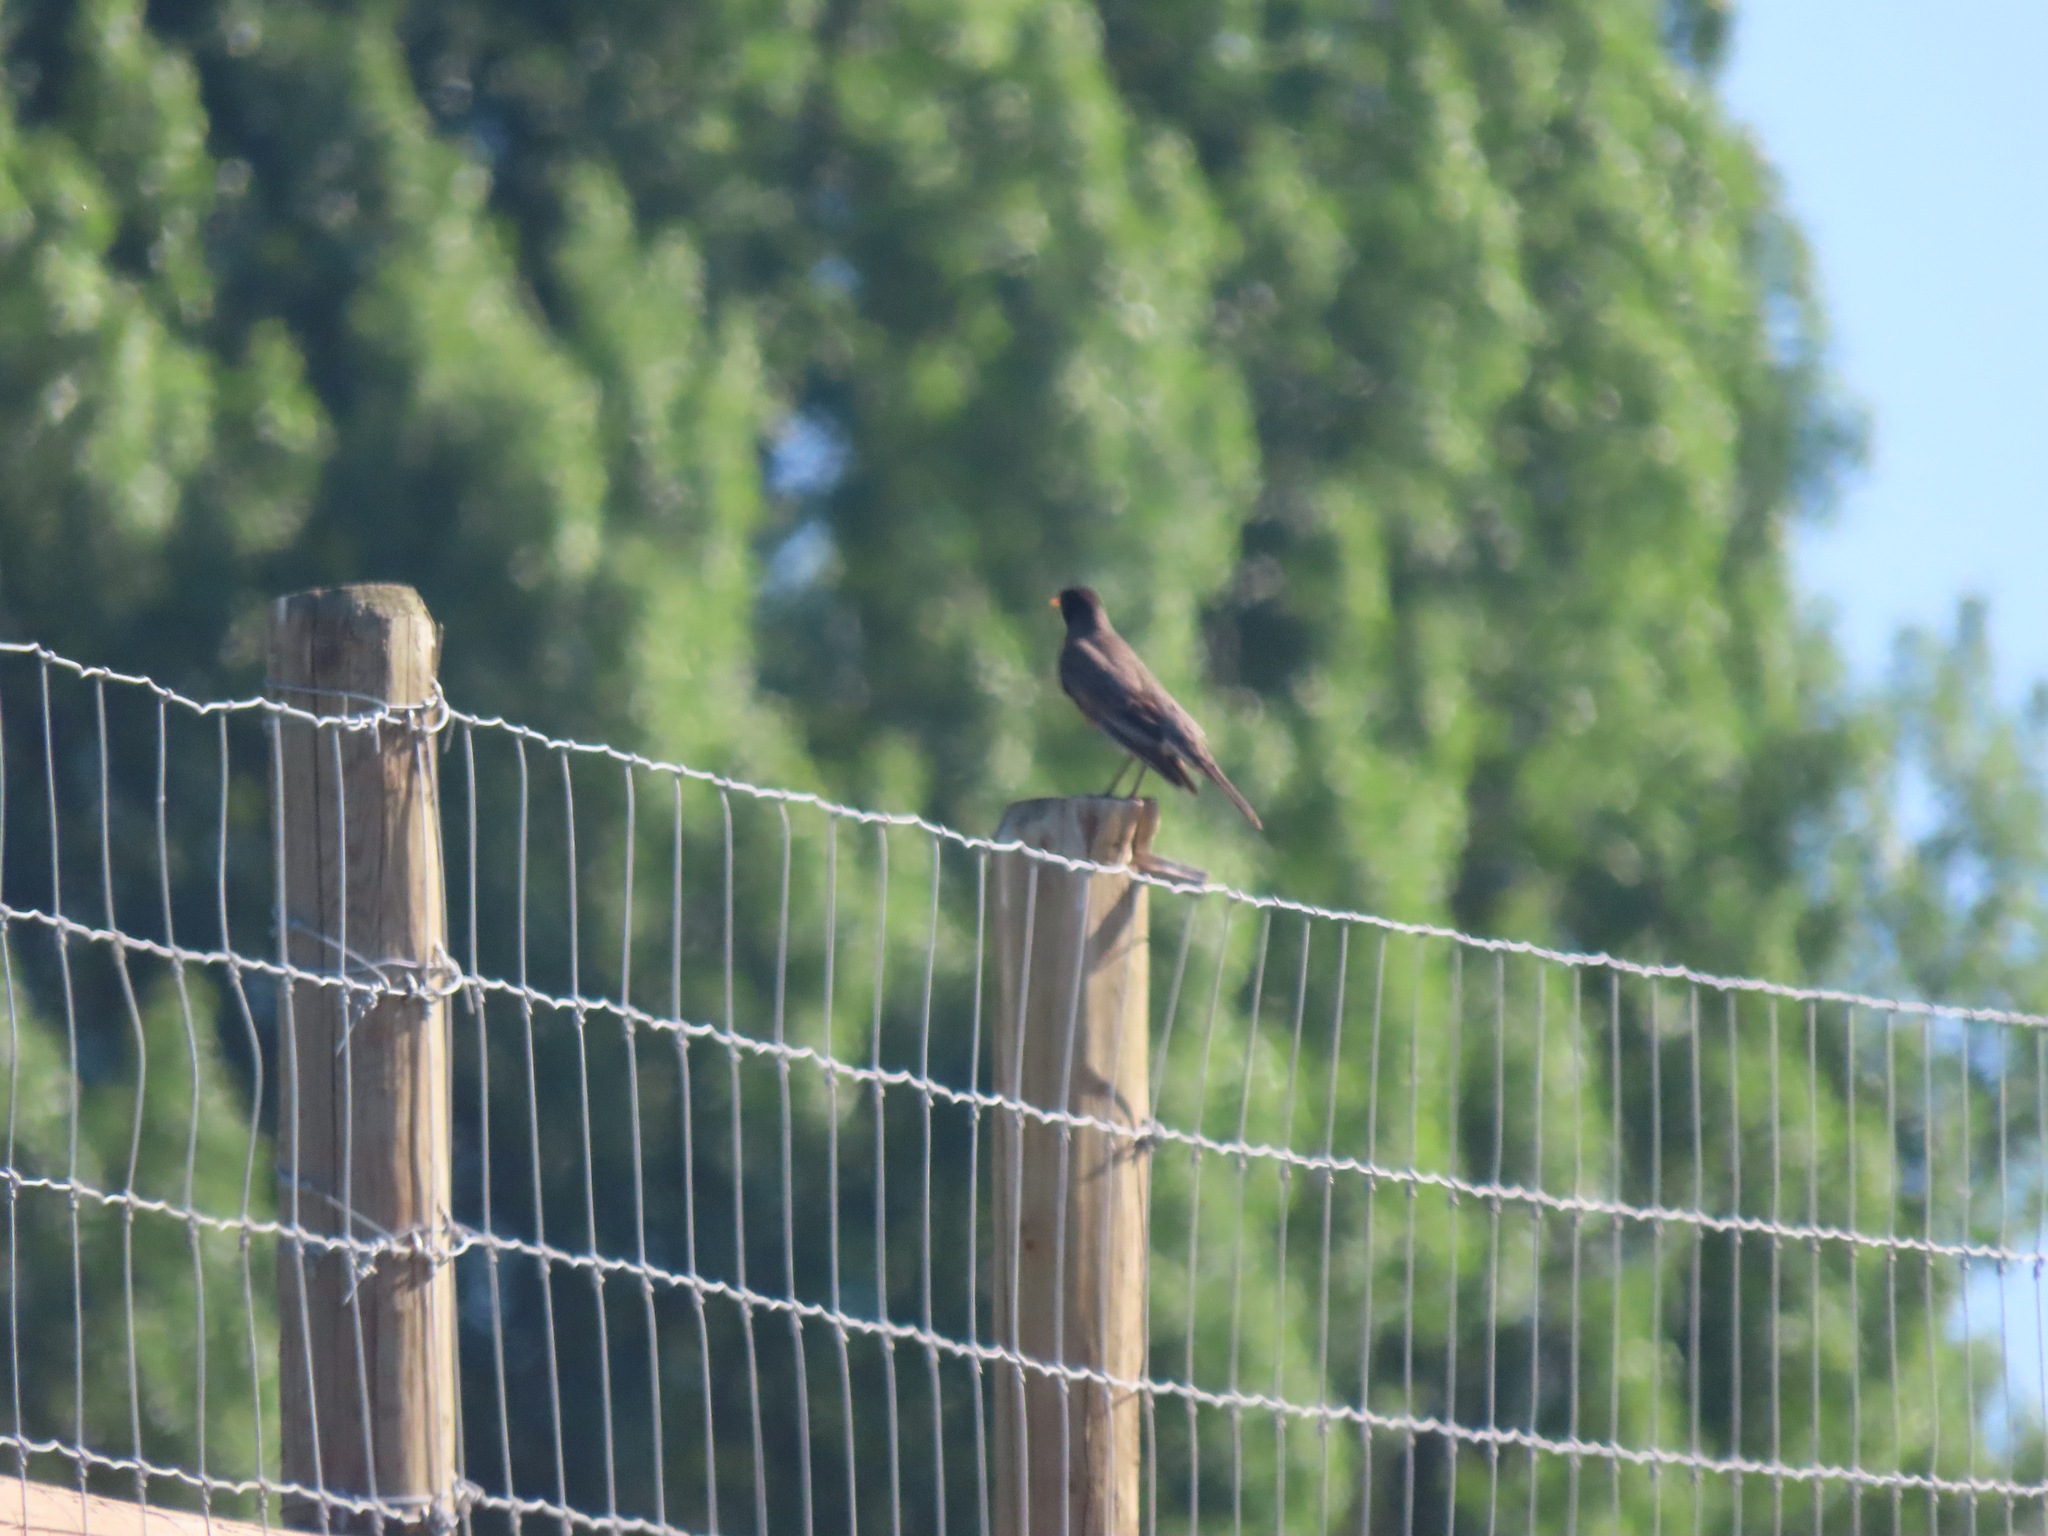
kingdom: Animalia
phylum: Chordata
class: Aves
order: Passeriformes
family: Turdidae
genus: Turdus
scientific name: Turdus migratorius
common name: American robin
